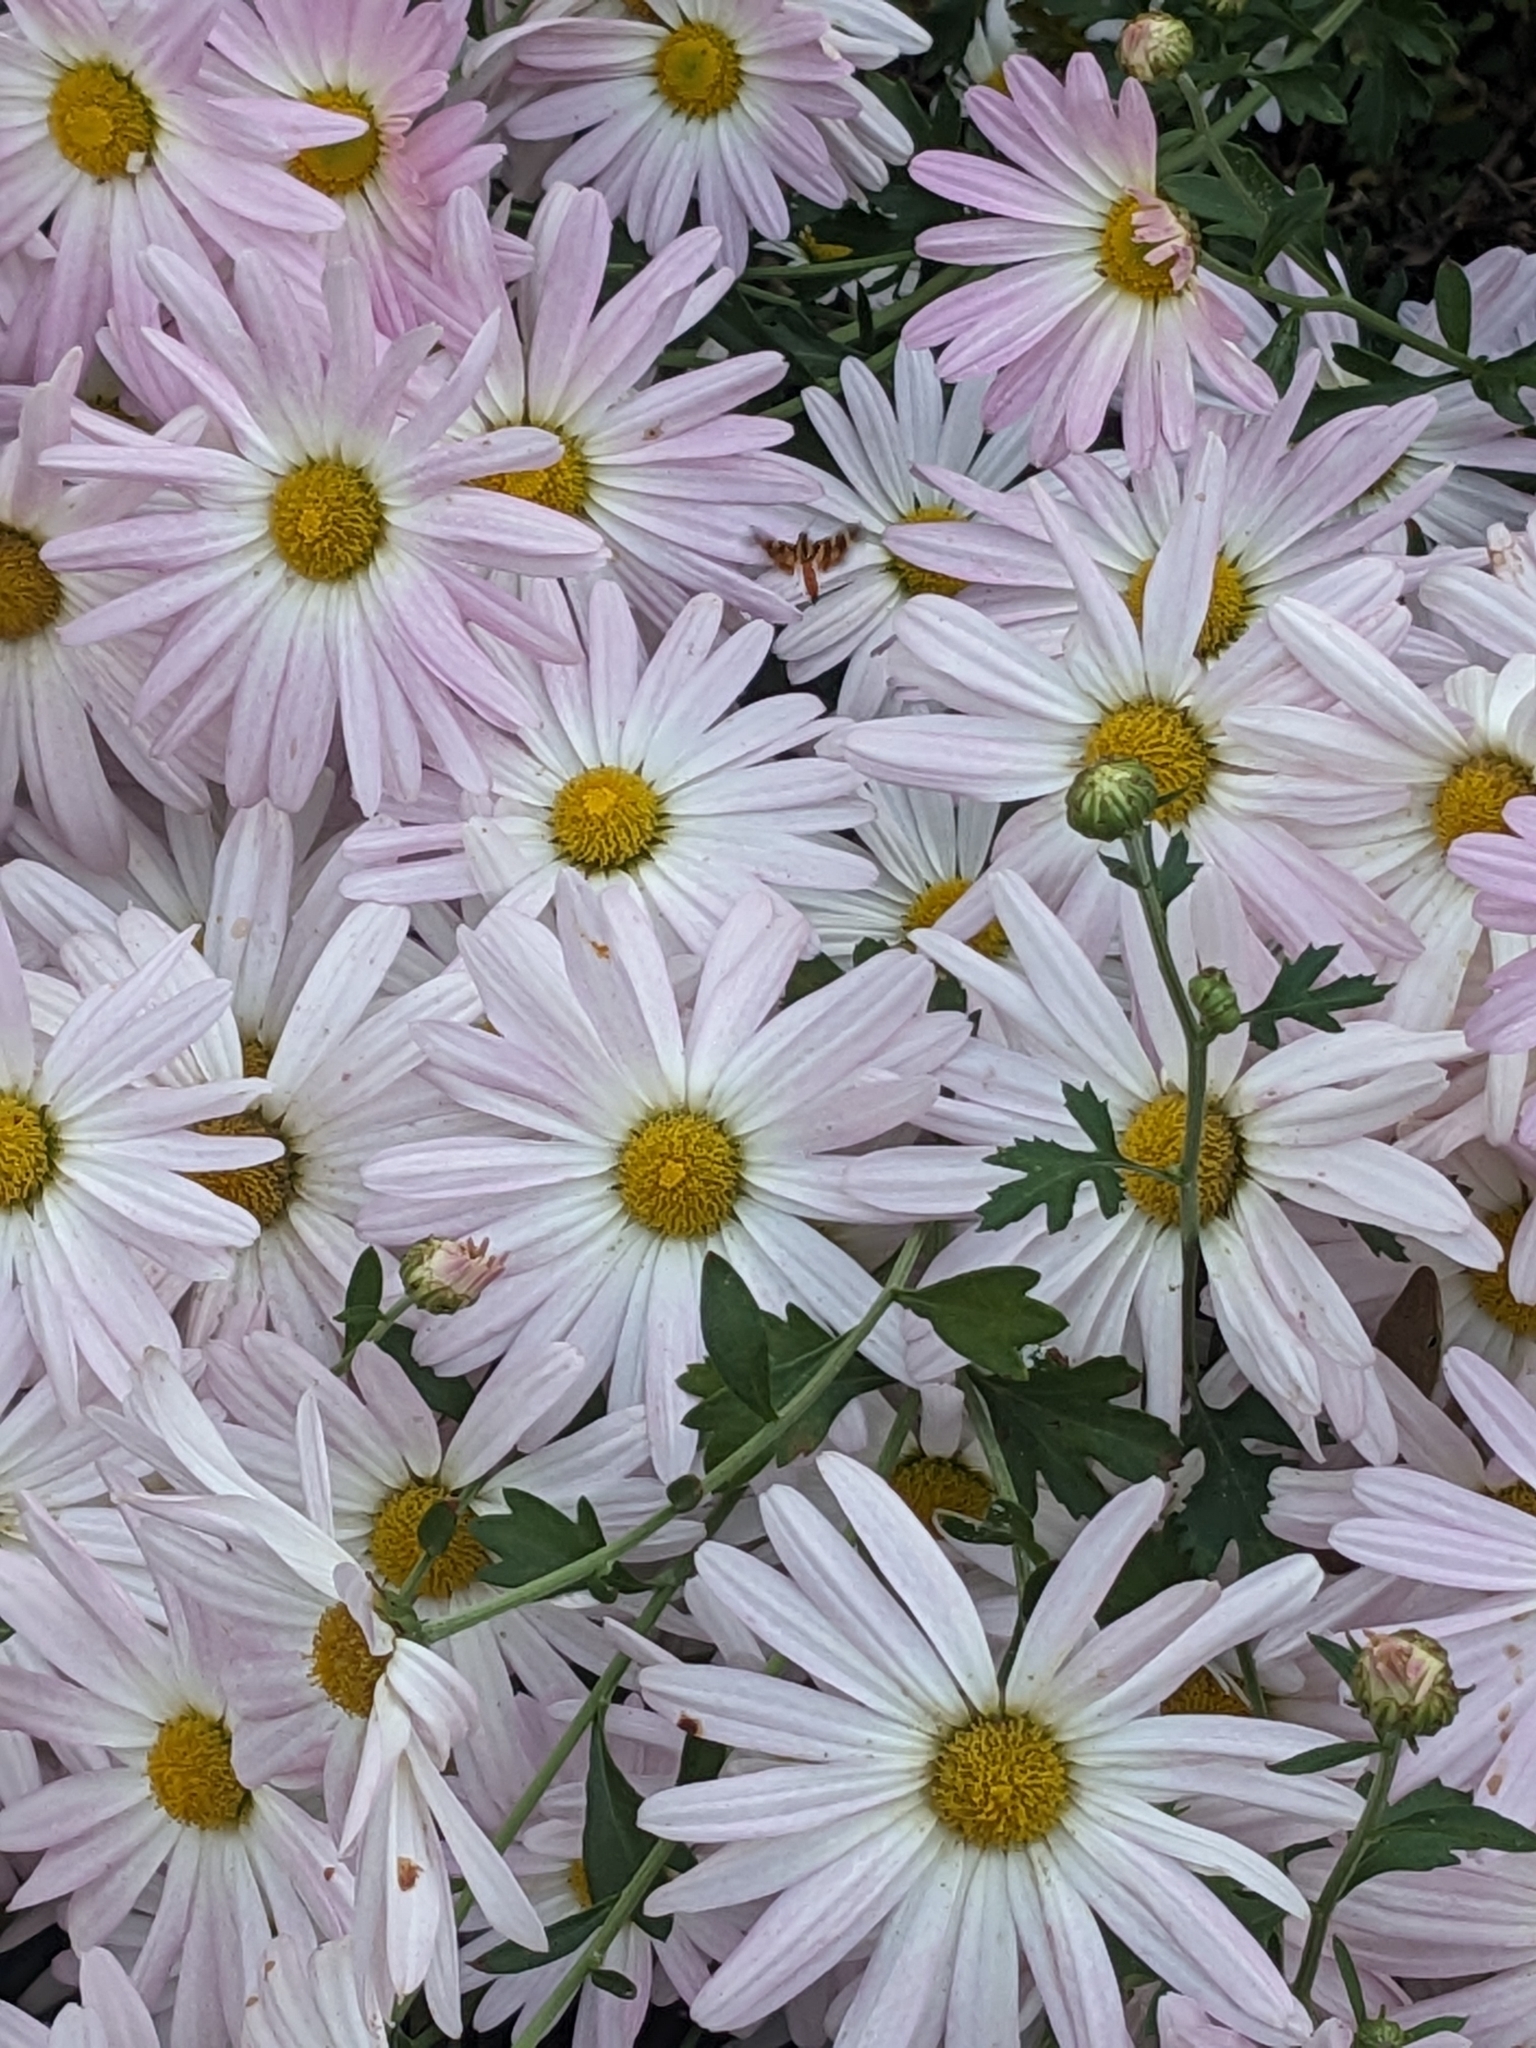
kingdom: Animalia
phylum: Arthropoda
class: Insecta
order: Lepidoptera
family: Crambidae
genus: Syngamia
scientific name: Syngamia florella
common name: Orange-spotted flower moth
